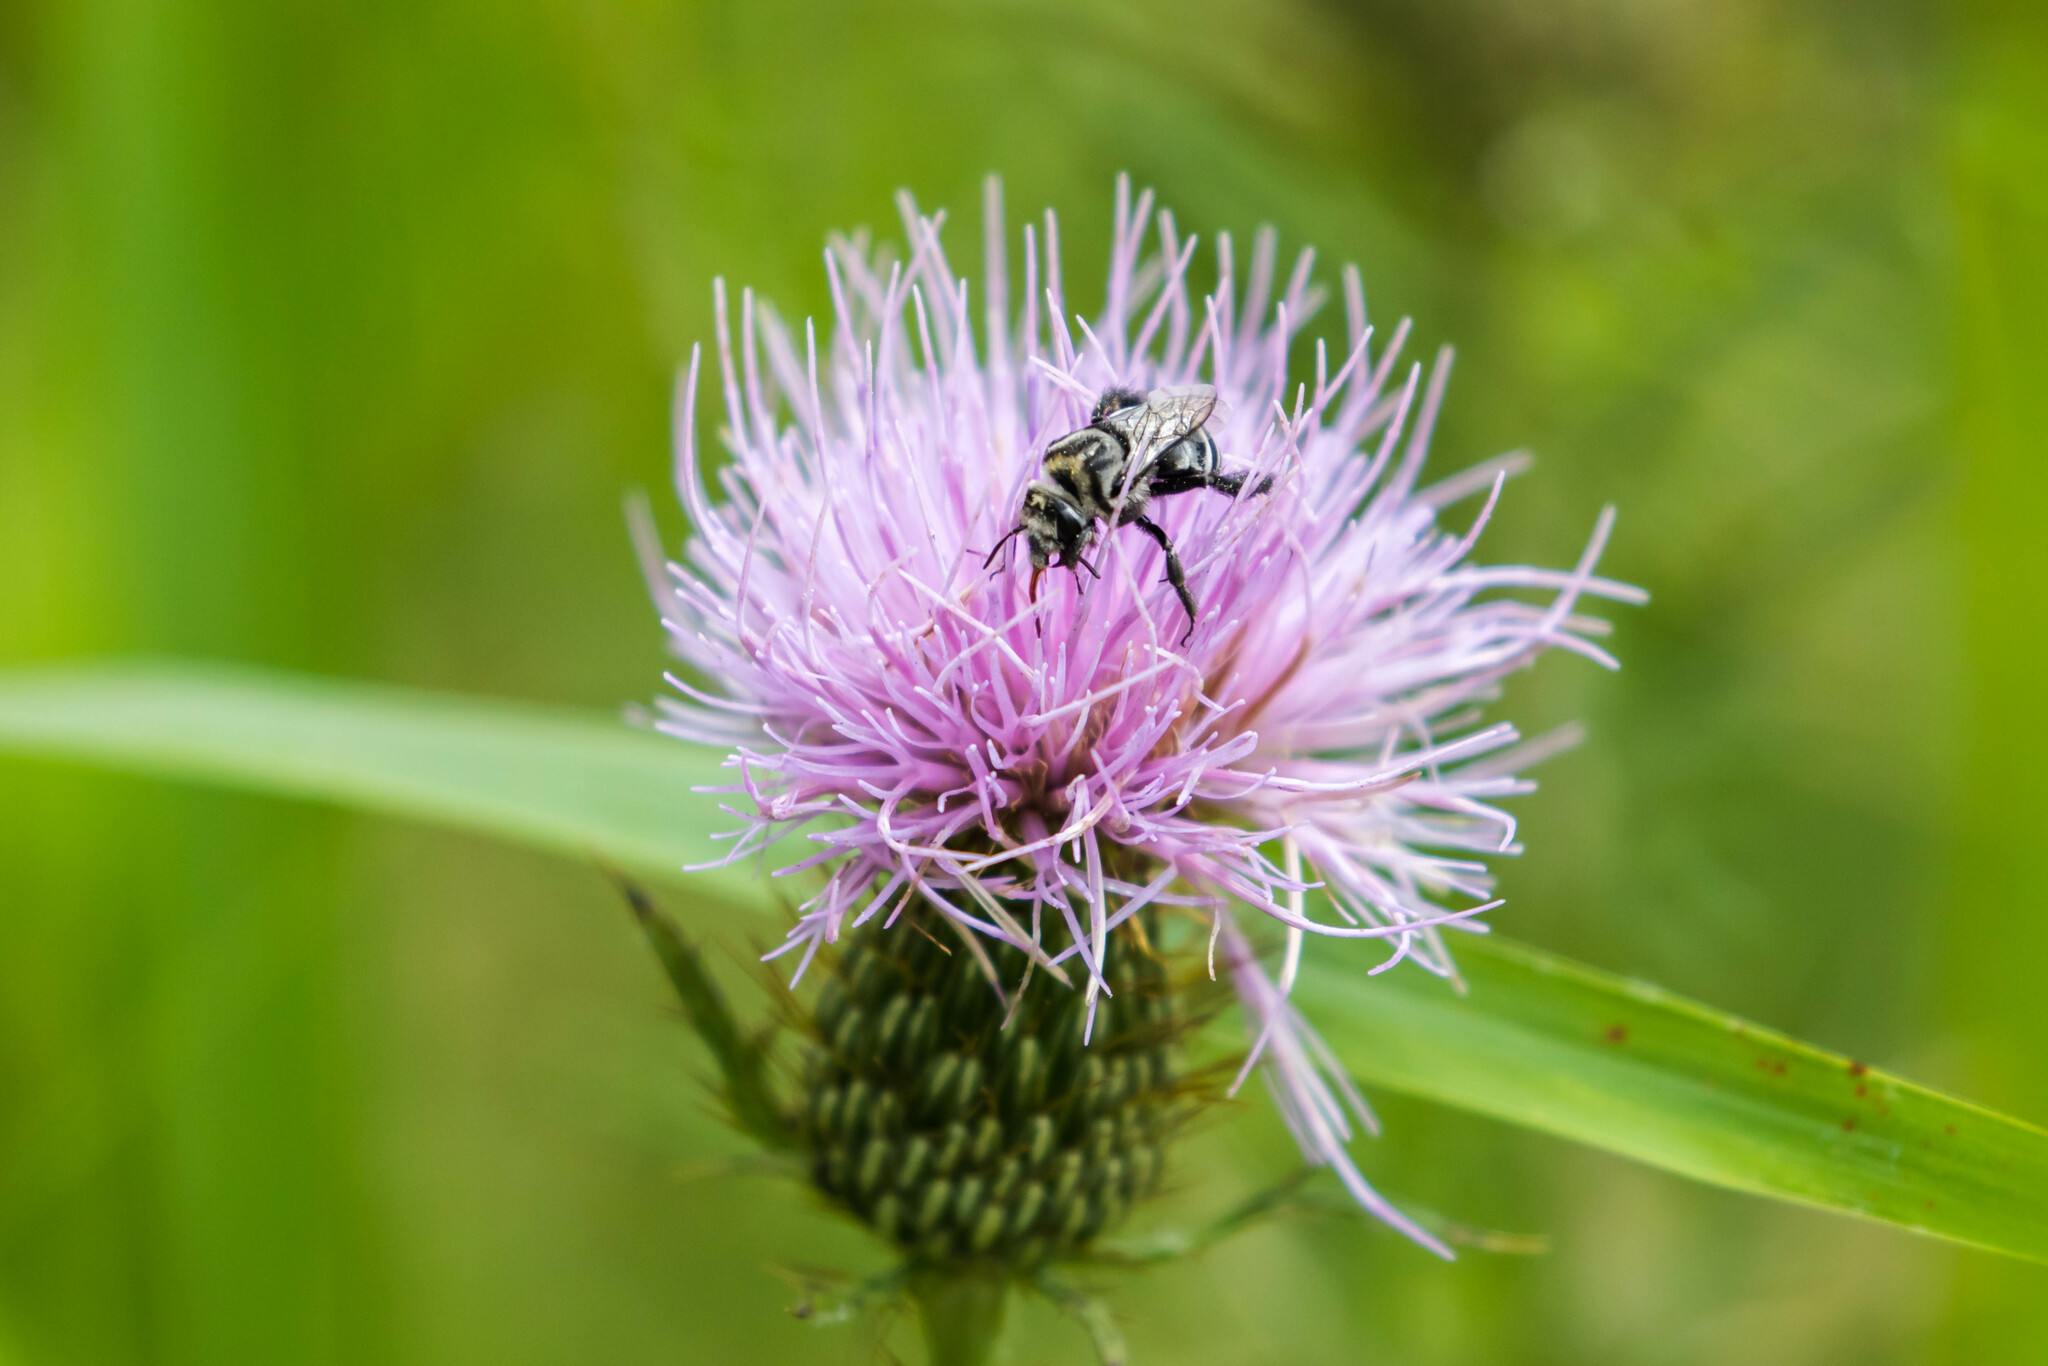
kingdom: Animalia
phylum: Arthropoda
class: Insecta
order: Hymenoptera
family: Apidae
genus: Melitoma
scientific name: Melitoma taurea
